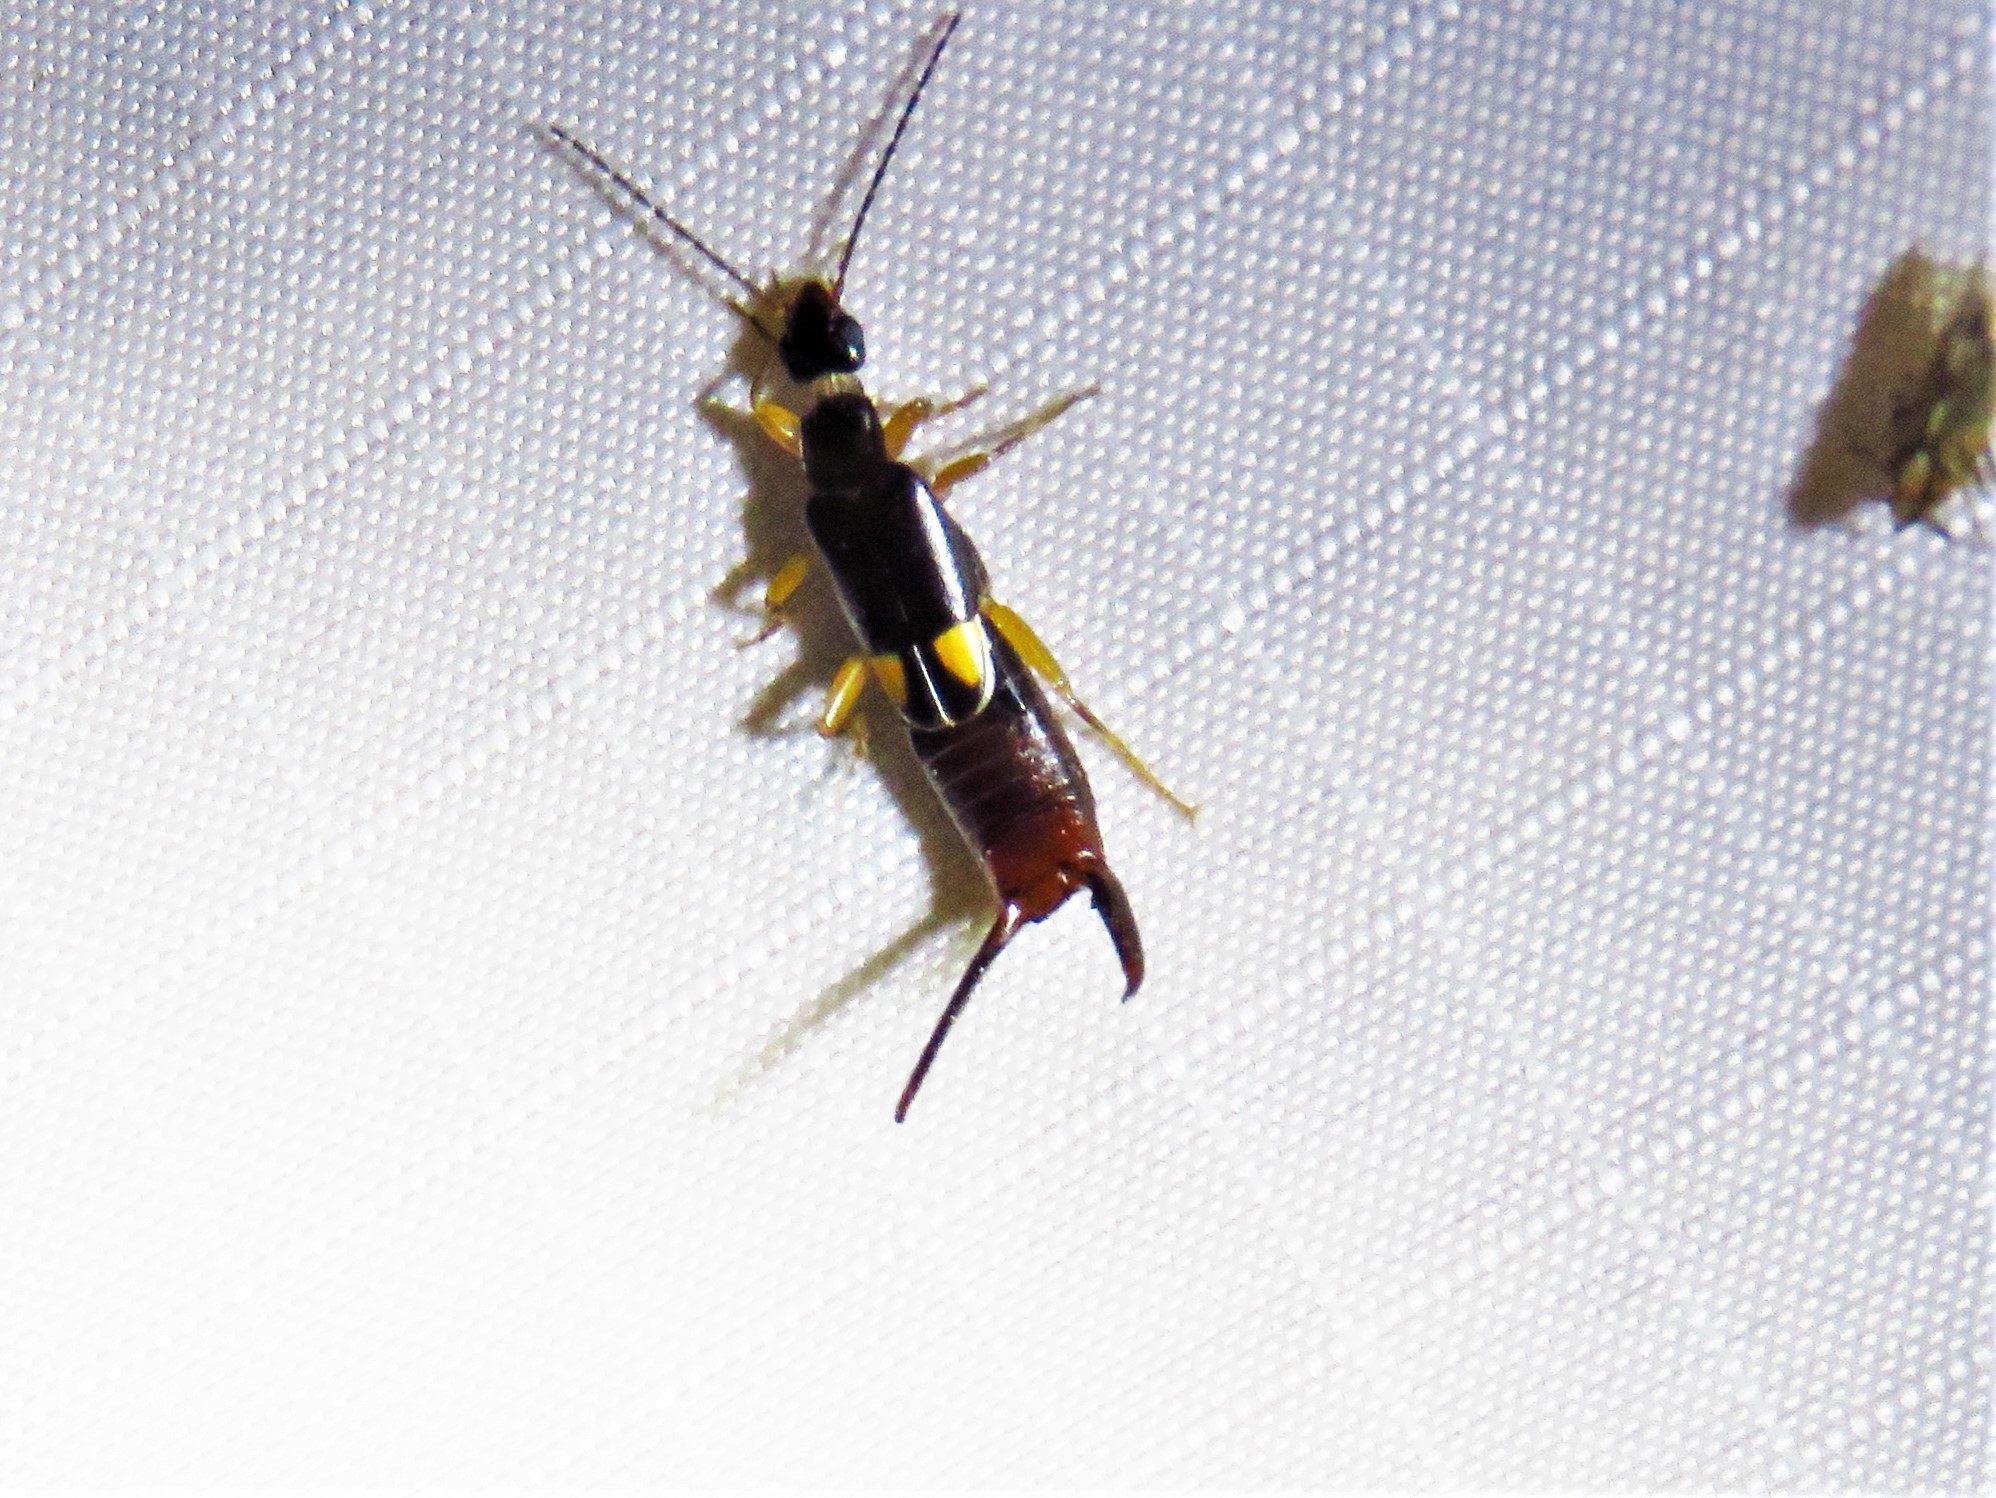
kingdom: Animalia
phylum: Arthropoda
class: Insecta
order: Dermaptera
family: Spongiphoridae
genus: Vostox
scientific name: Vostox brunneipennis
